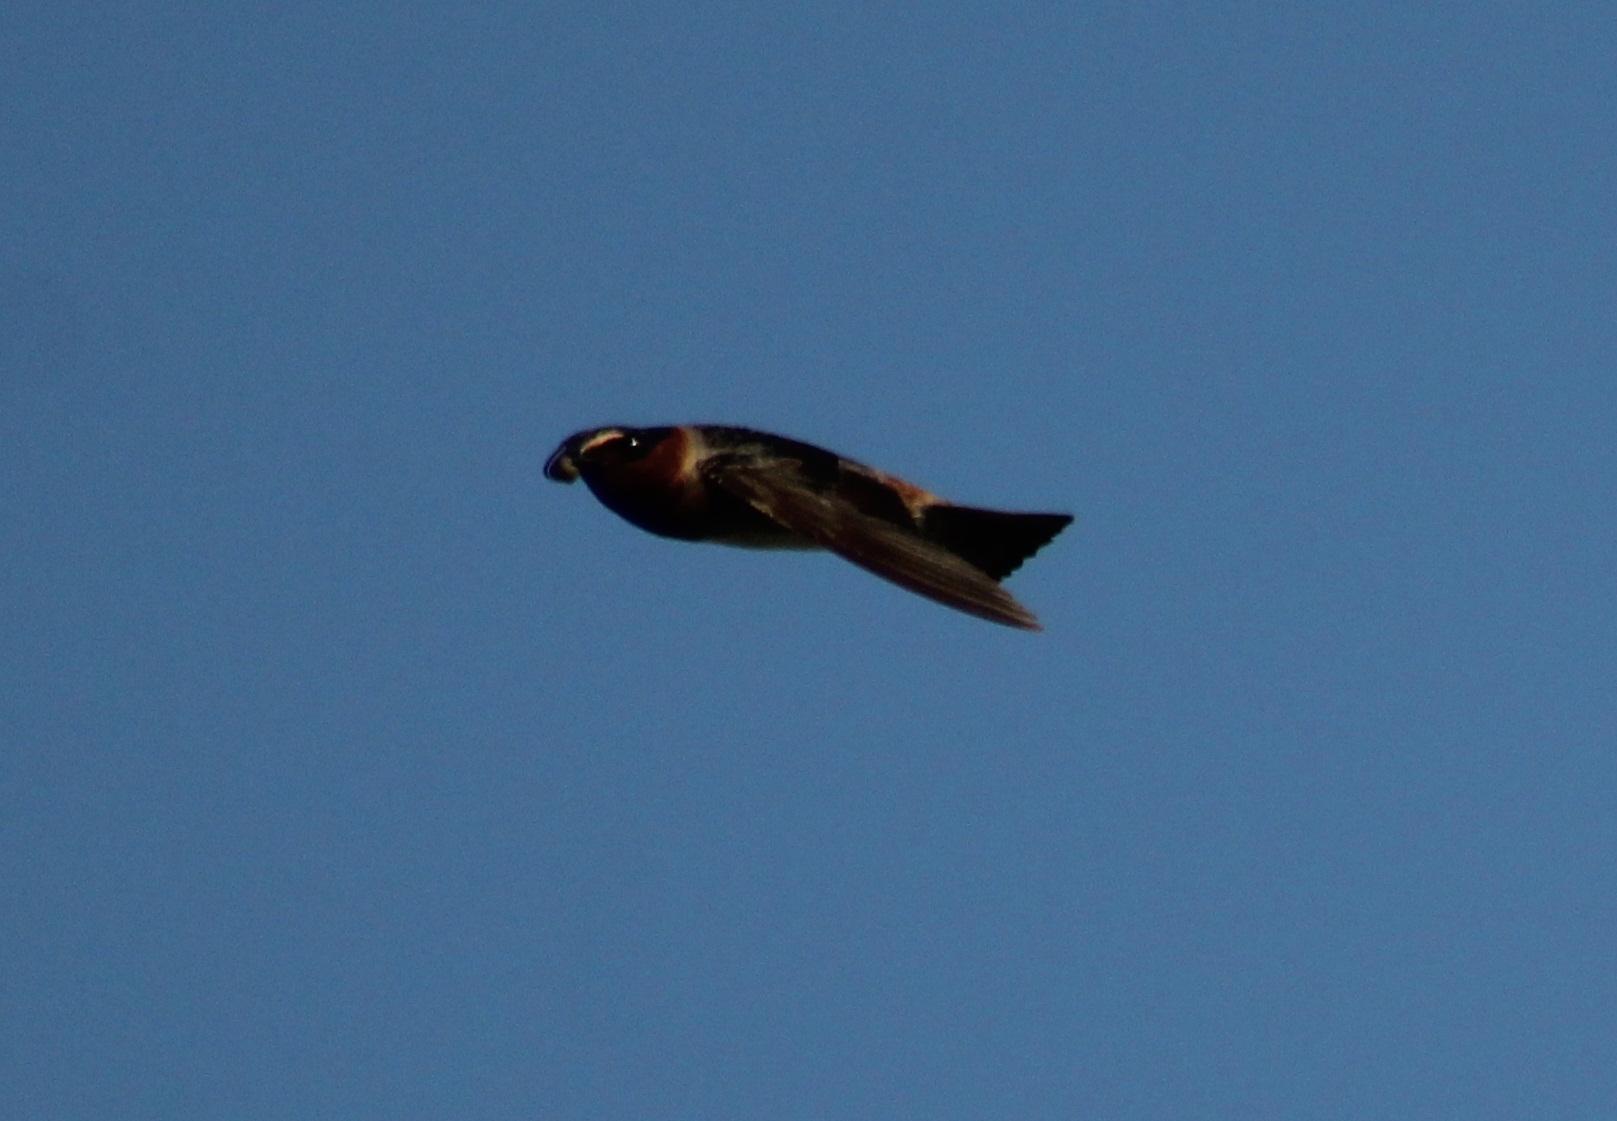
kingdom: Animalia
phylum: Chordata
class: Aves
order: Passeriformes
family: Hirundinidae
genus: Petrochelidon
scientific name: Petrochelidon pyrrhonota
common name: American cliff swallow
